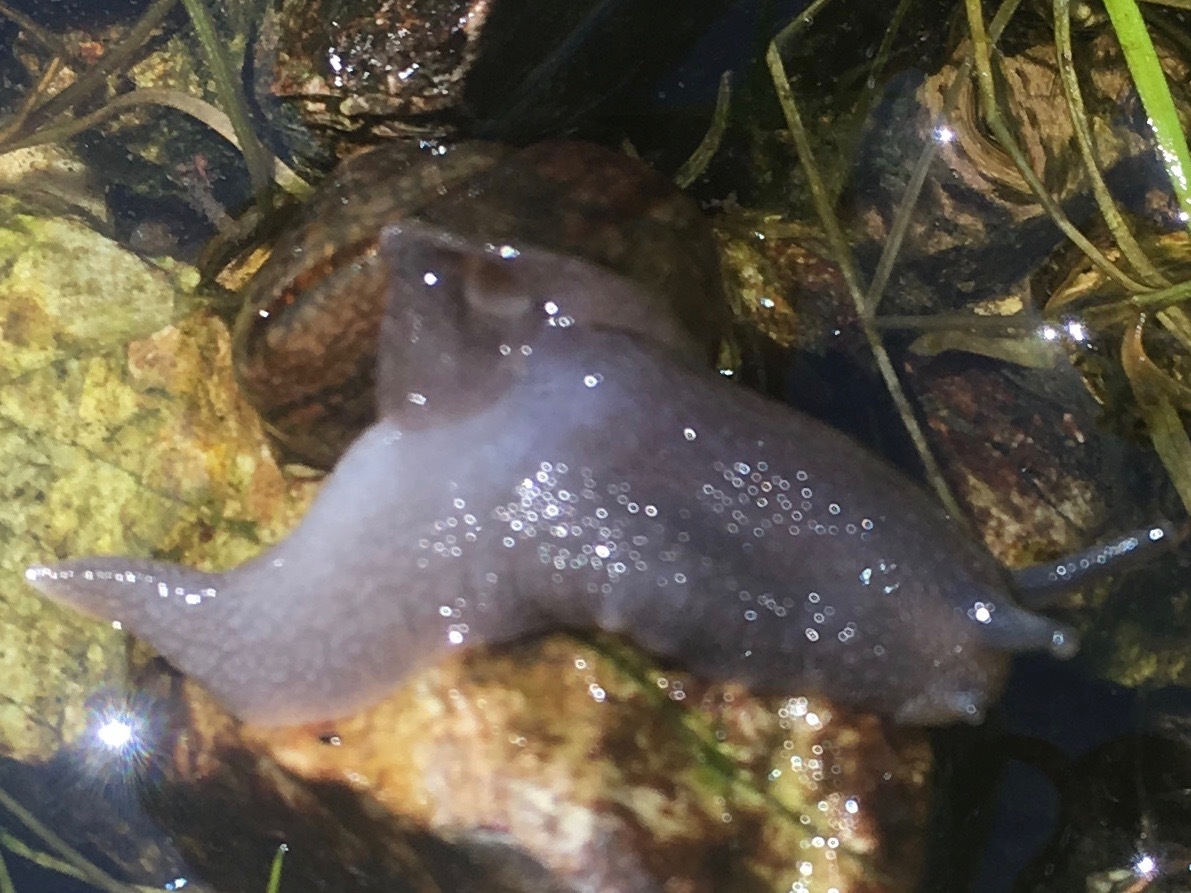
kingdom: Animalia
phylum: Mollusca
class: Gastropoda
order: Stylommatophora
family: Xanthonychidae
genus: Helminthoglypta
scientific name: Helminthoglypta nickliniana
